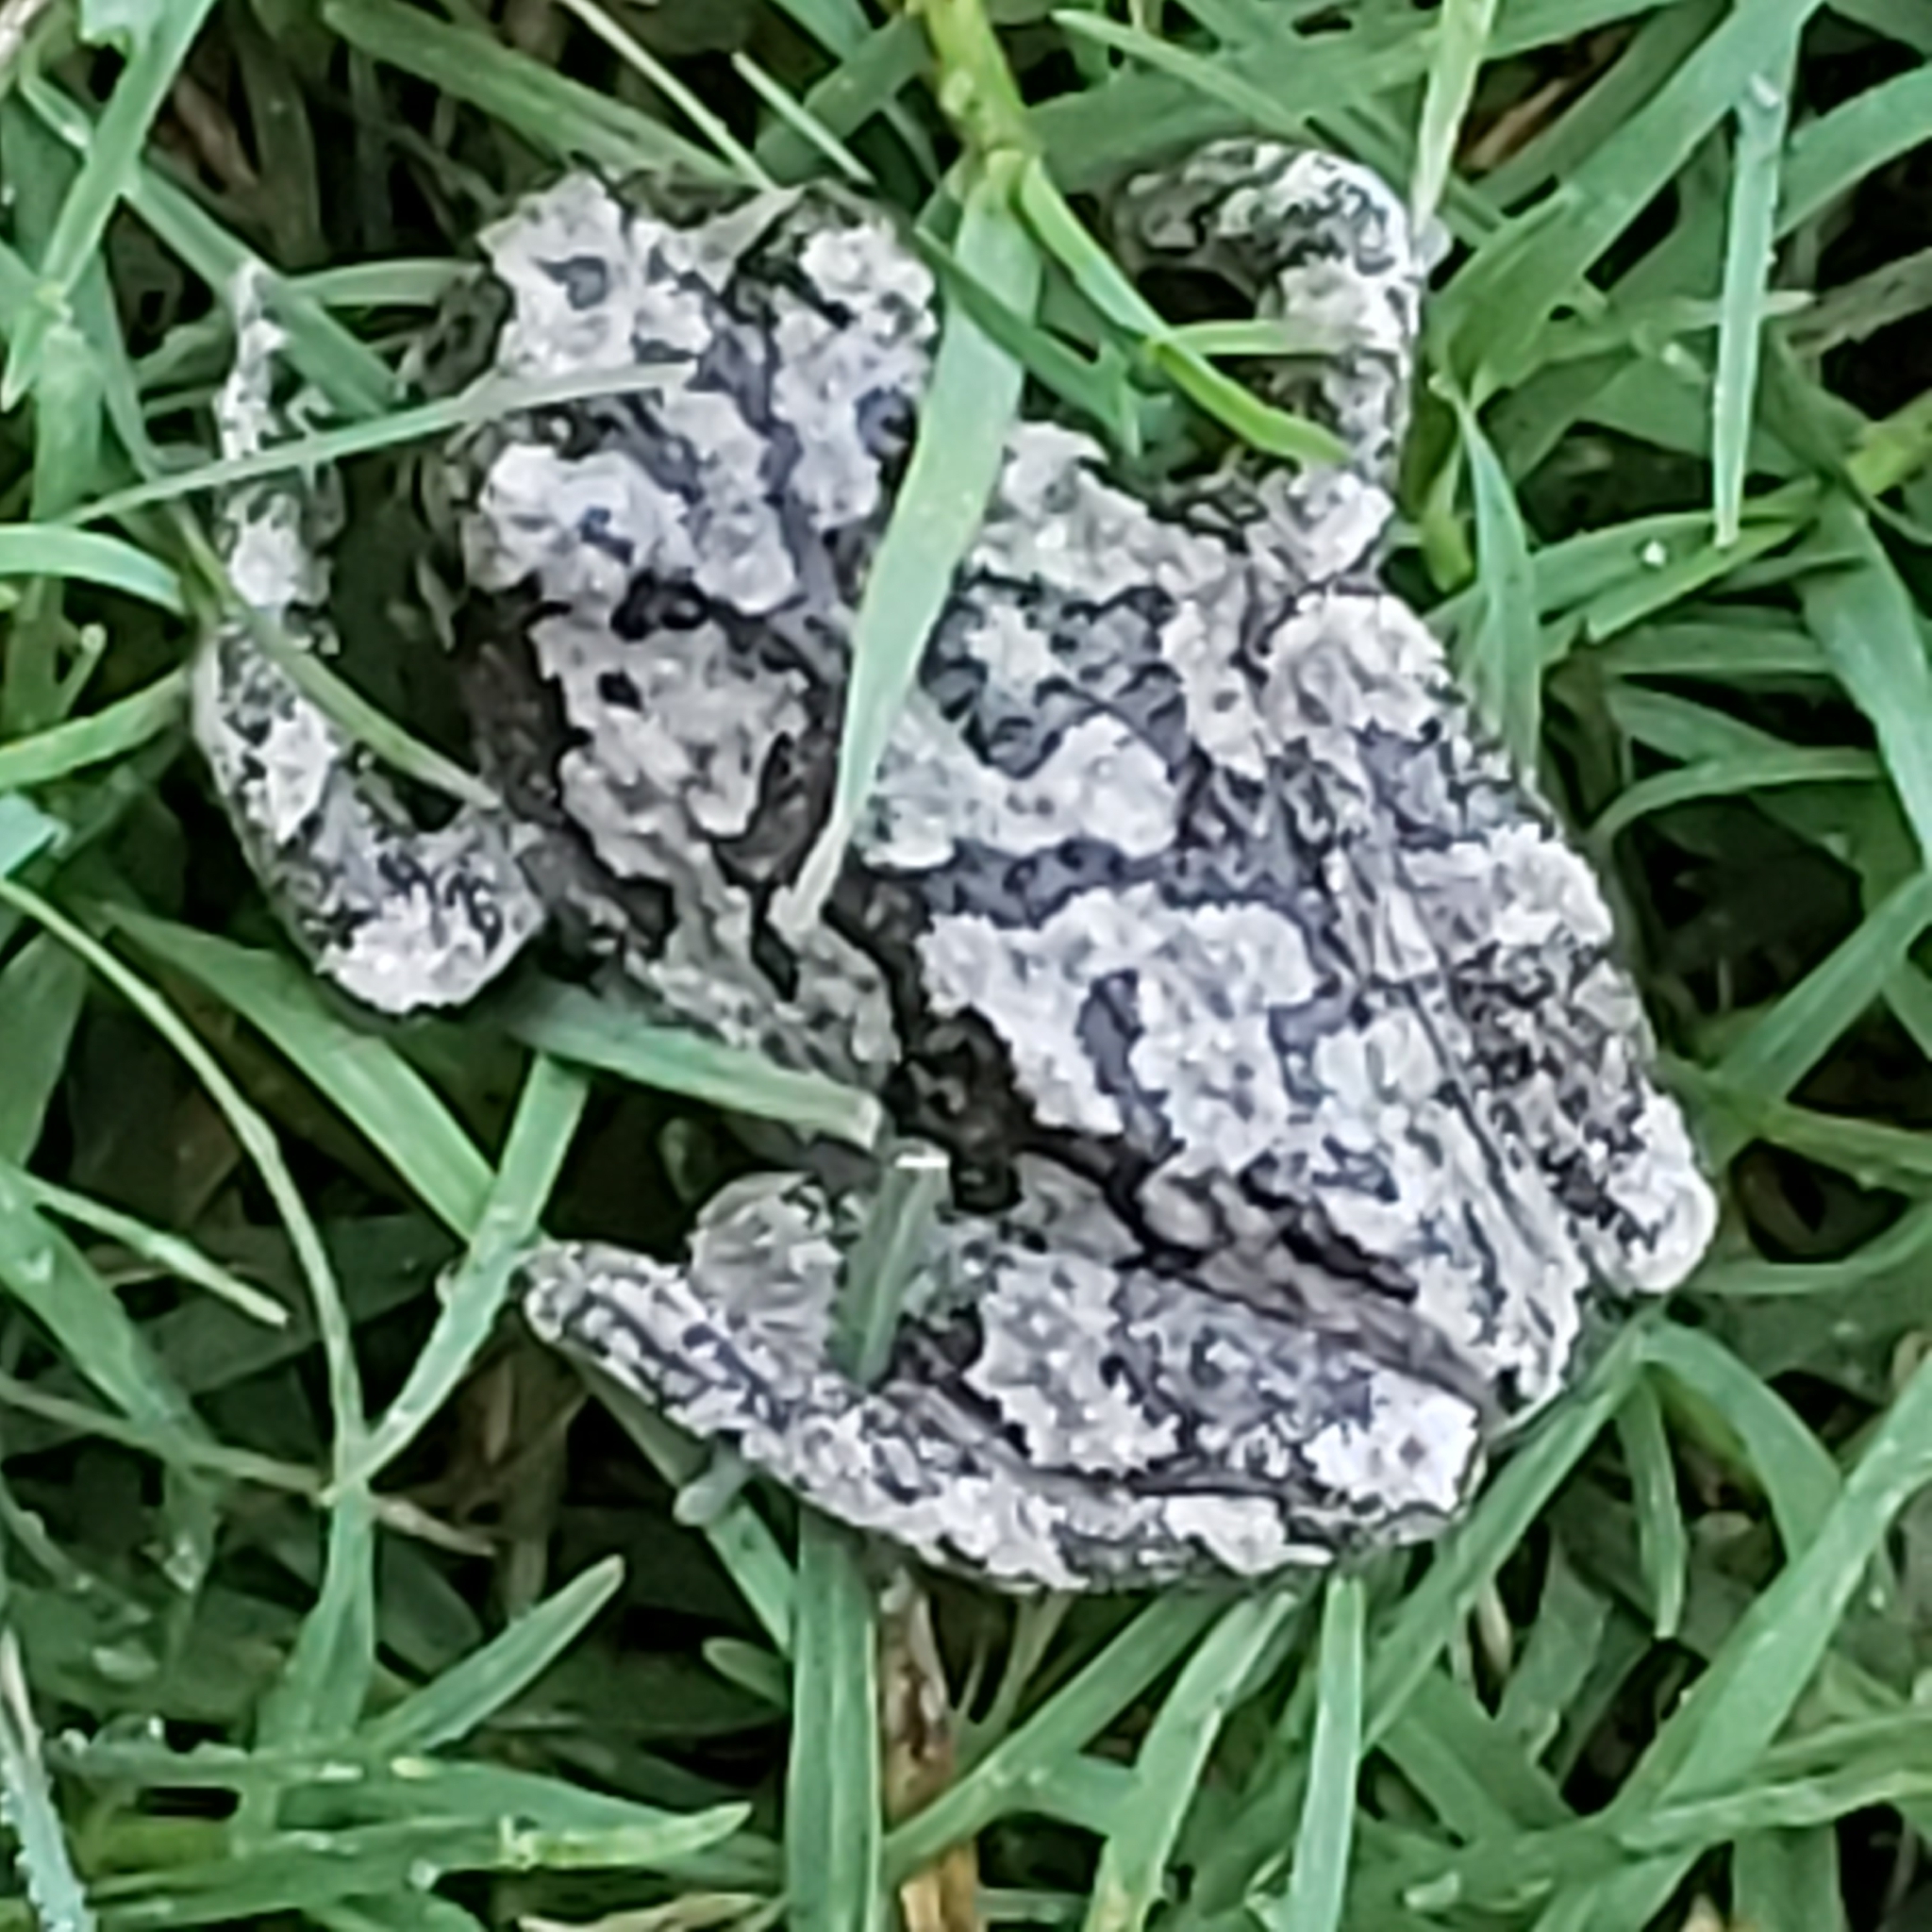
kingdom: Animalia
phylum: Chordata
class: Amphibia
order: Anura
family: Hylidae
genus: Dryophytes
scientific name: Dryophytes versicolor
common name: Gray treefrog
